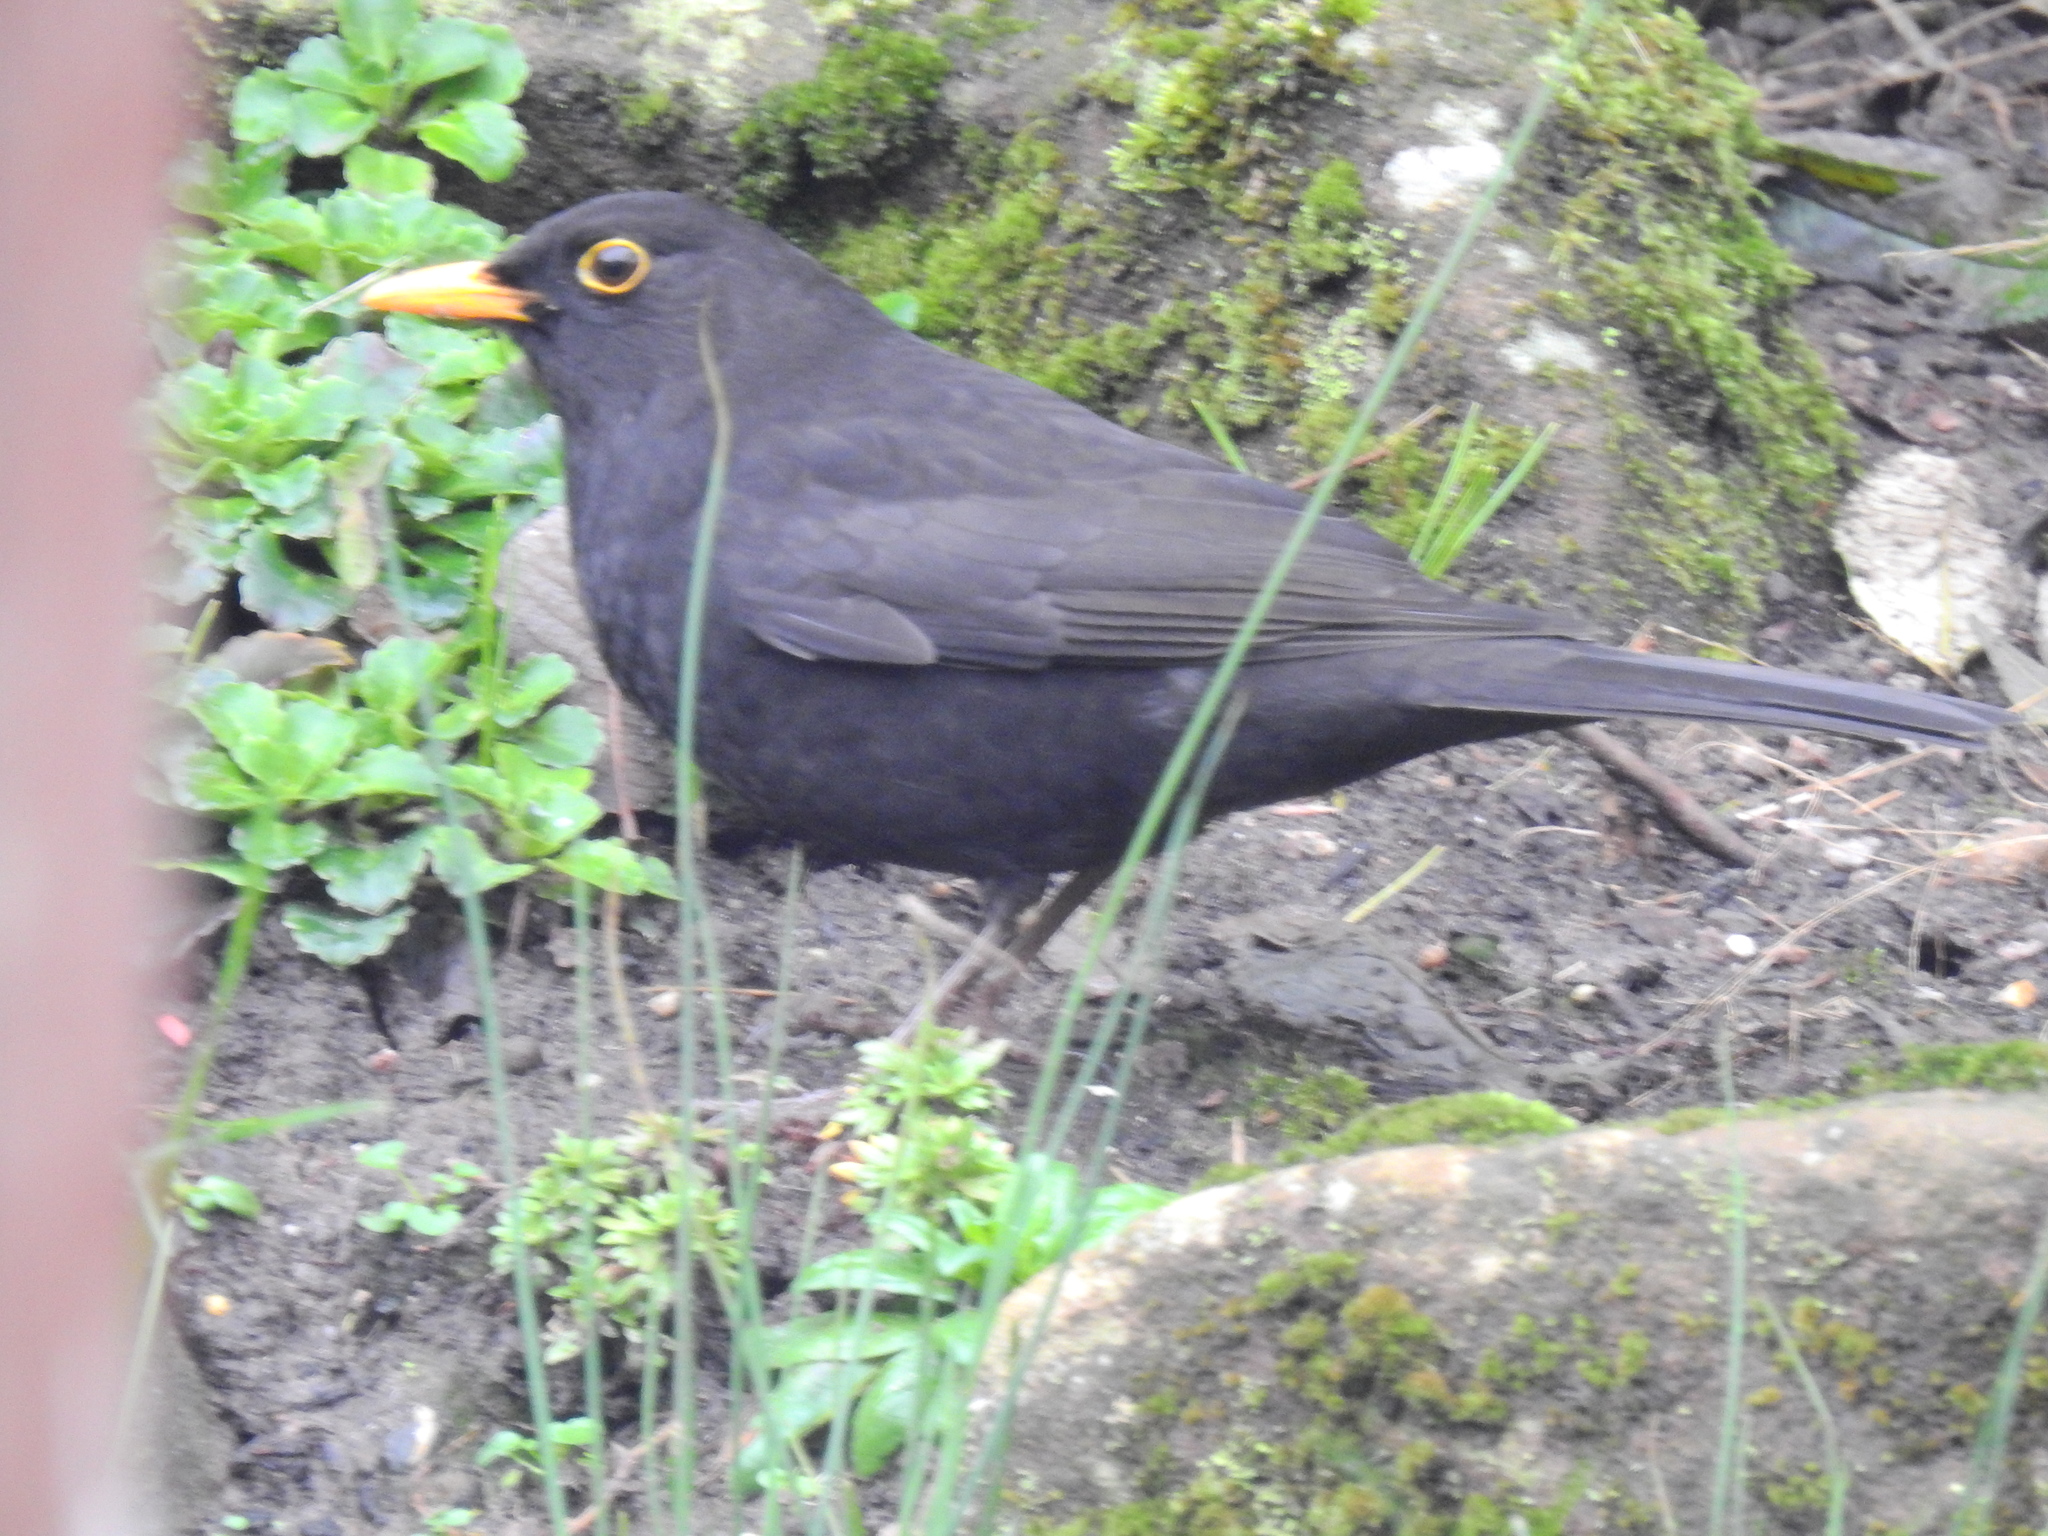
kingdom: Animalia
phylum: Chordata
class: Aves
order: Passeriformes
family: Turdidae
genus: Turdus
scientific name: Turdus merula
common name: Common blackbird
